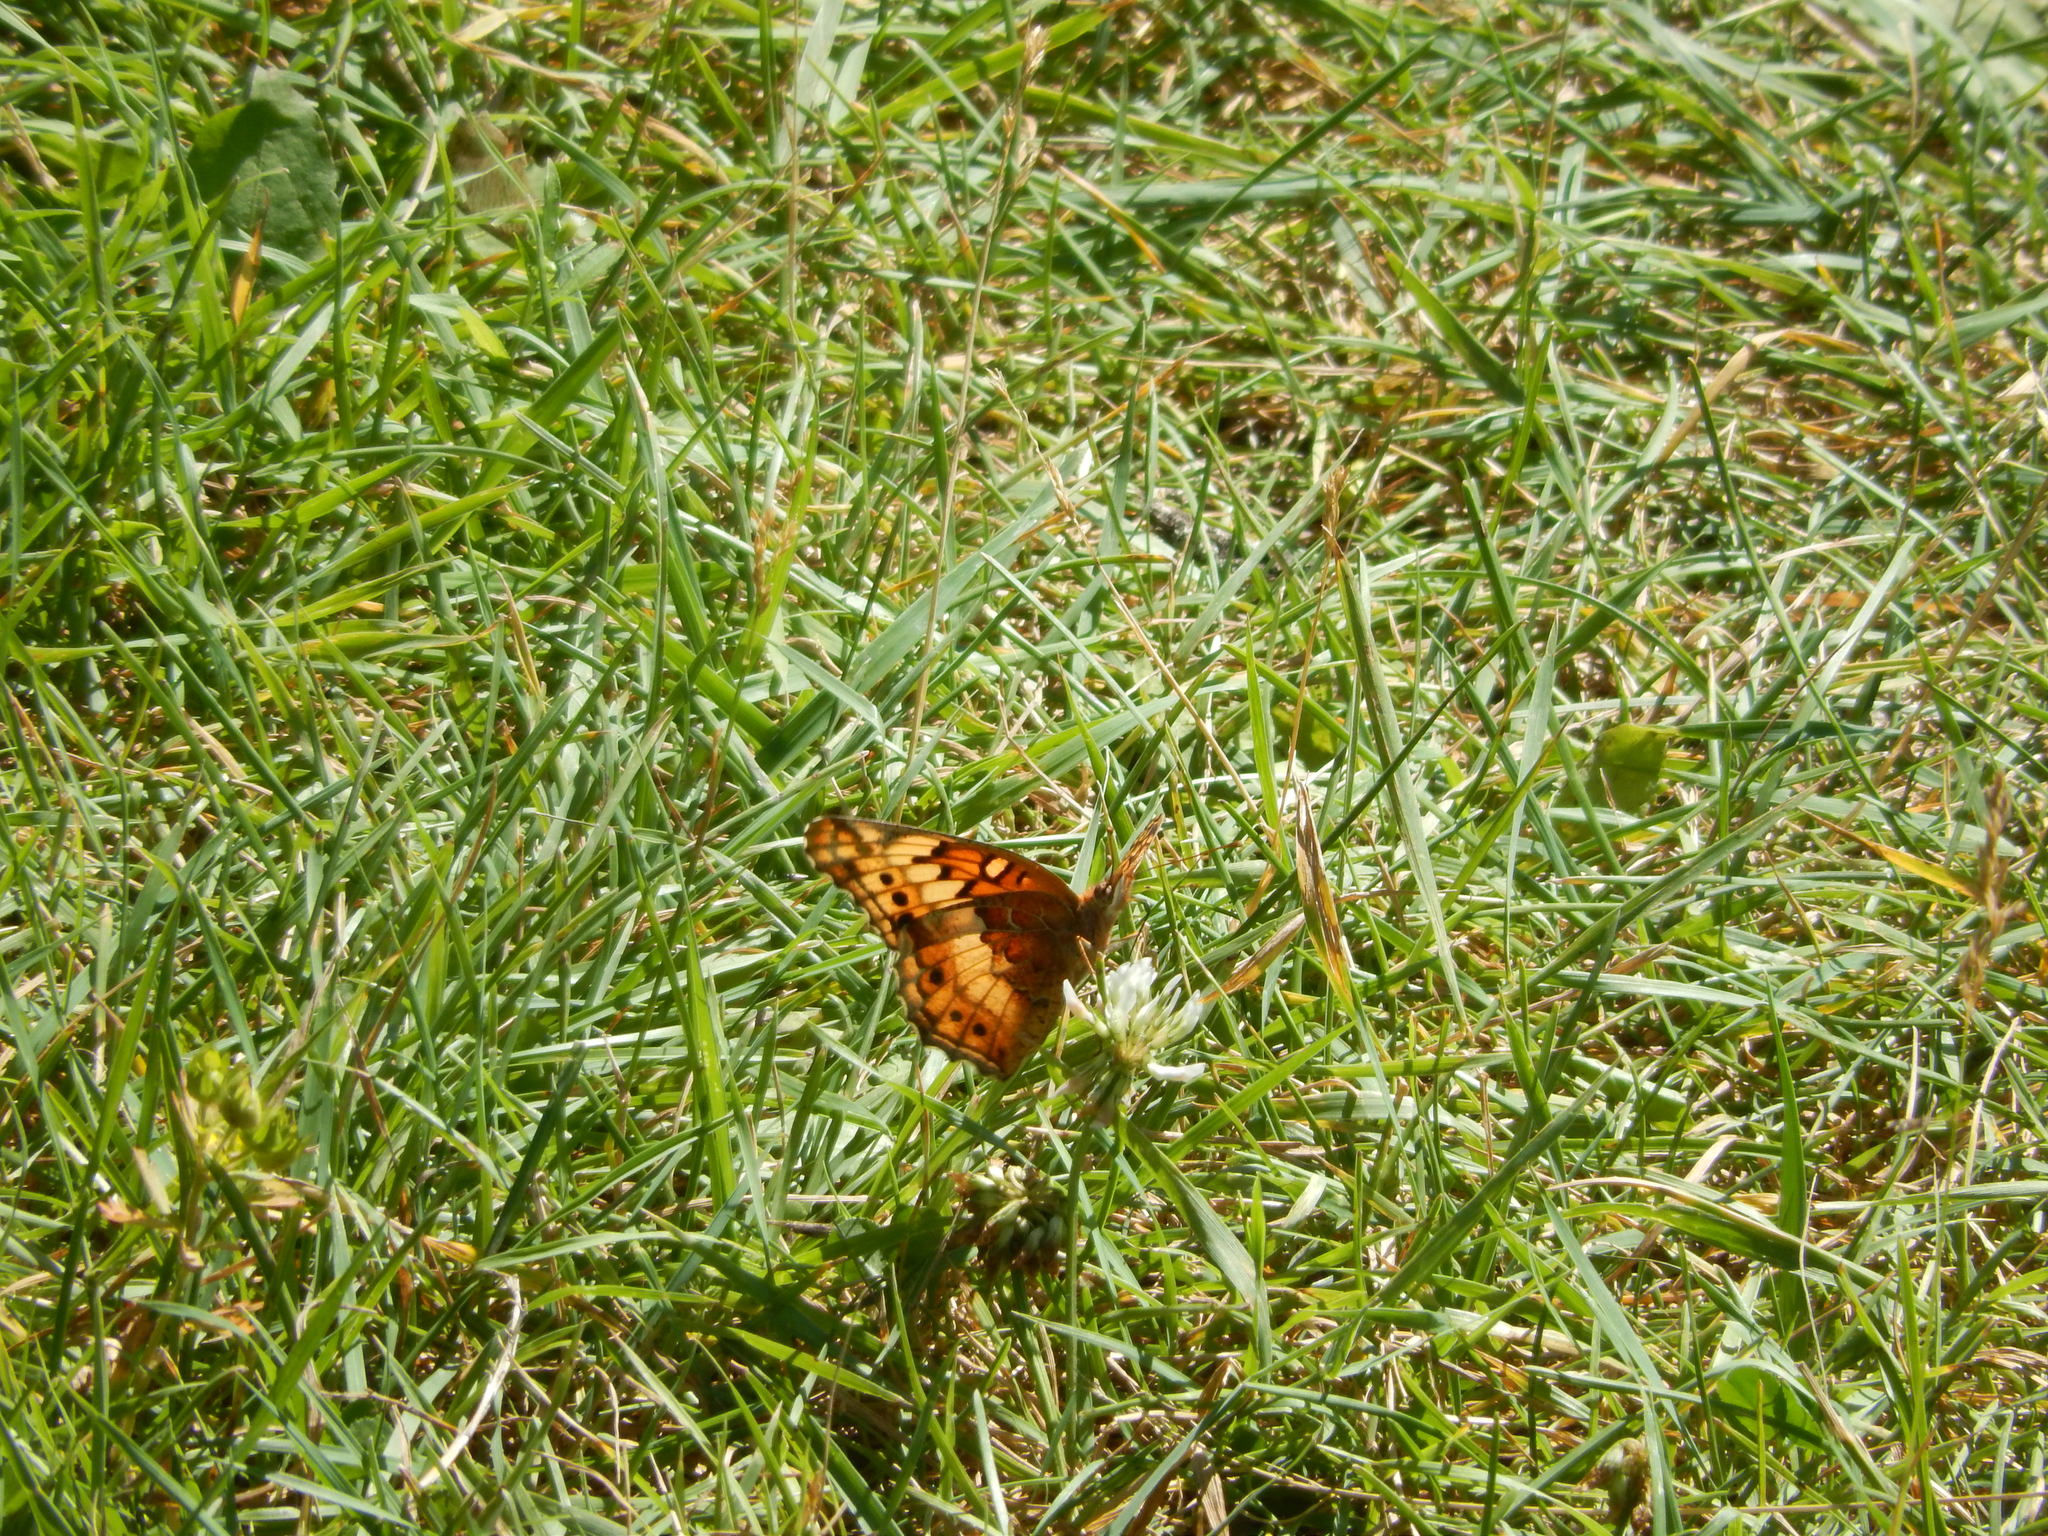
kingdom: Animalia
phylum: Arthropoda
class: Insecta
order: Lepidoptera
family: Nymphalidae
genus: Euptoieta
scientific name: Euptoieta claudia
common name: Variegated fritillary
